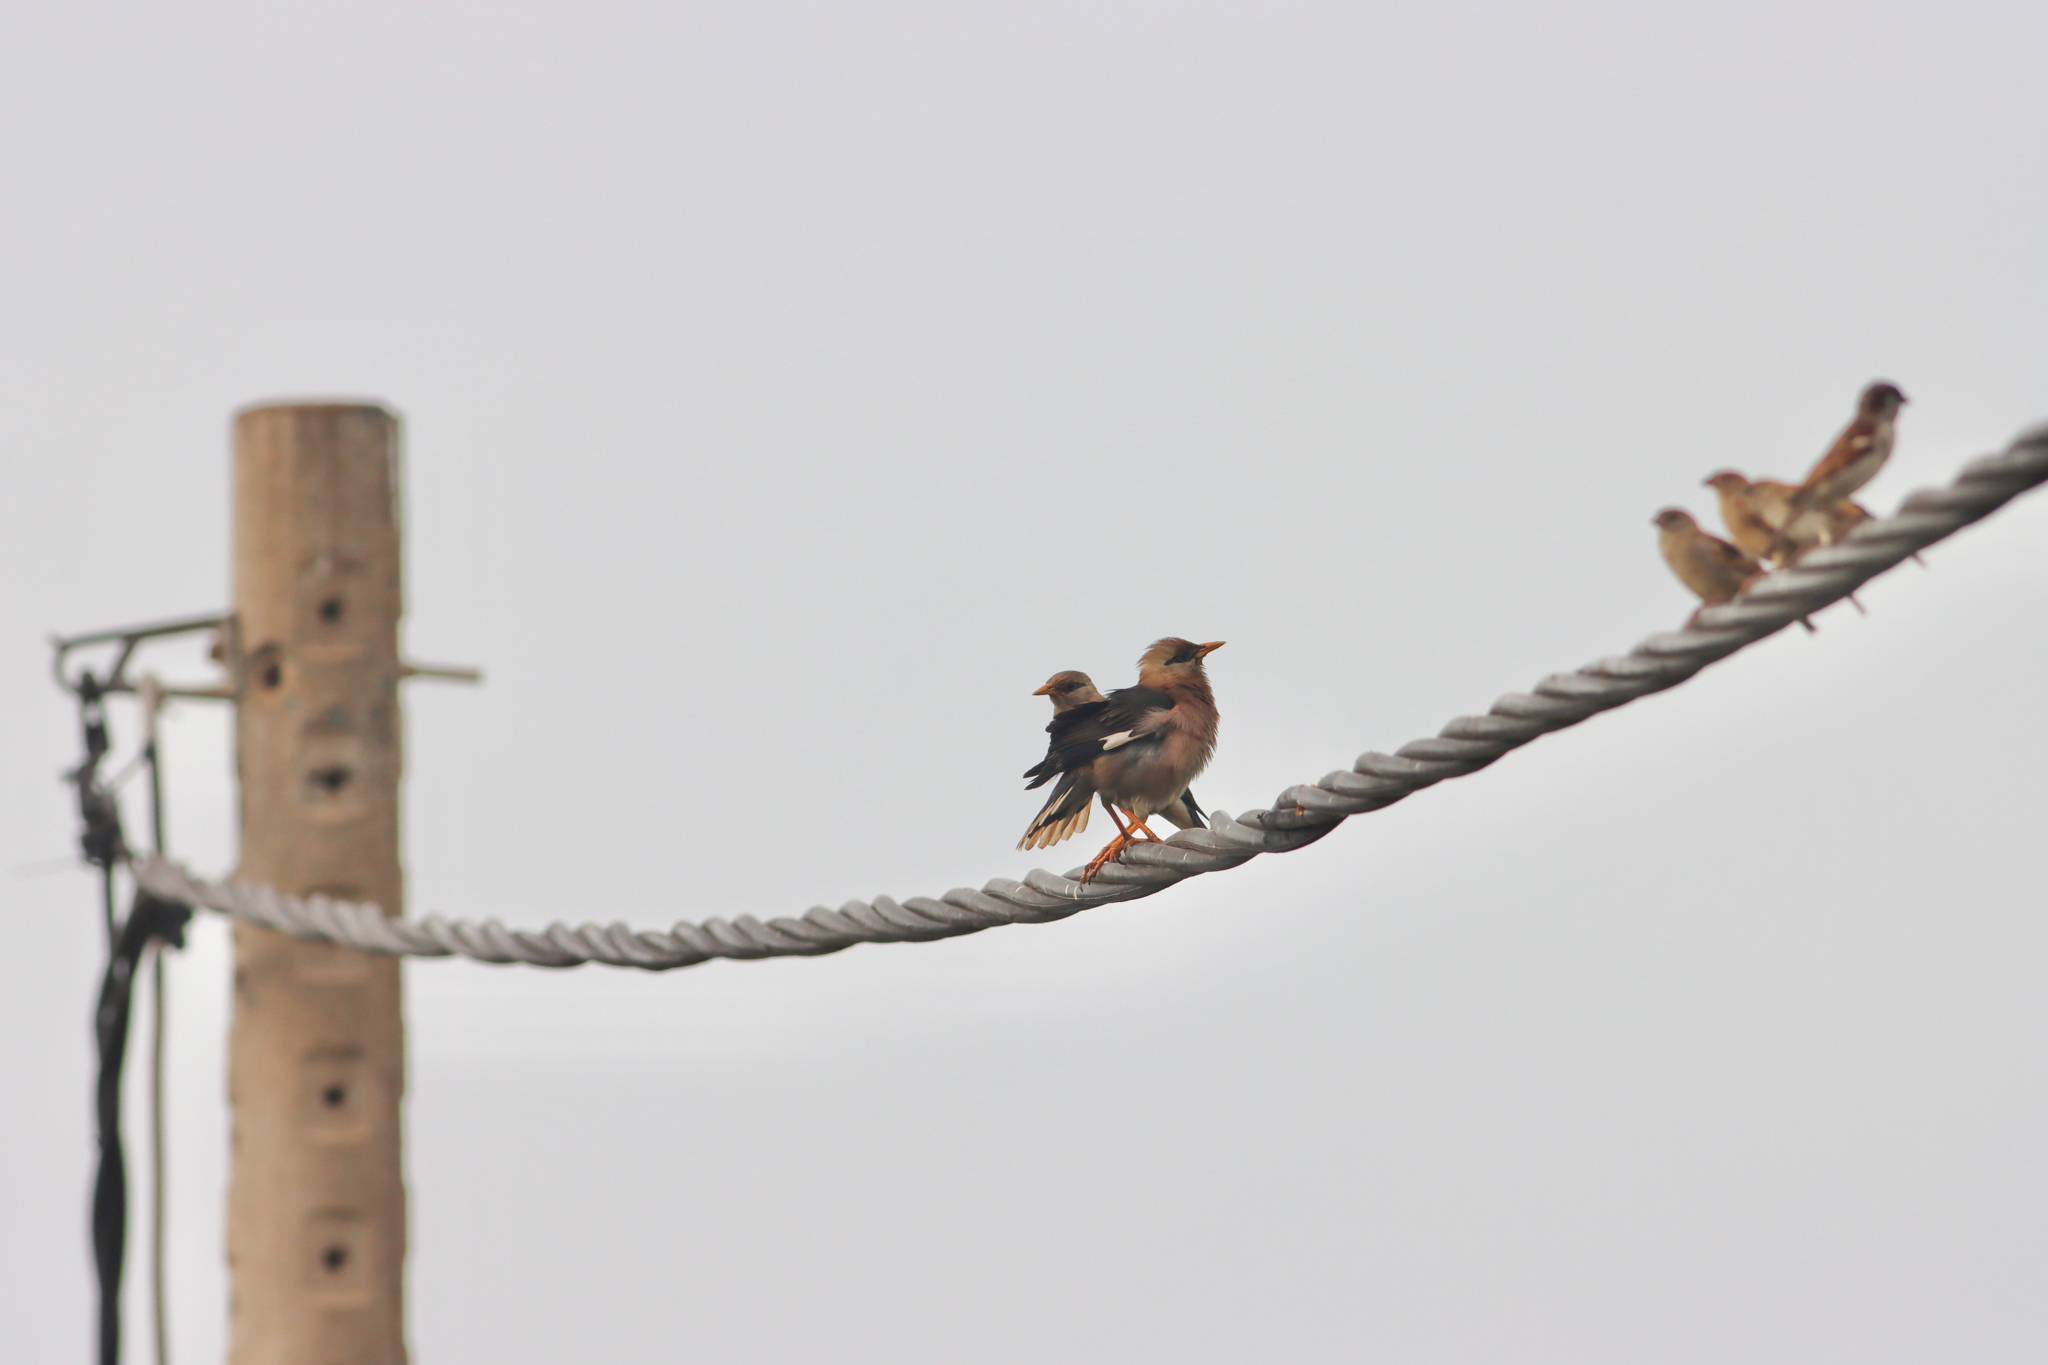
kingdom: Animalia
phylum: Chordata
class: Aves
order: Passeriformes
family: Sturnidae
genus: Acridotheres
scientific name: Acridotheres leucocephalus
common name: Vinous-breasted myna
